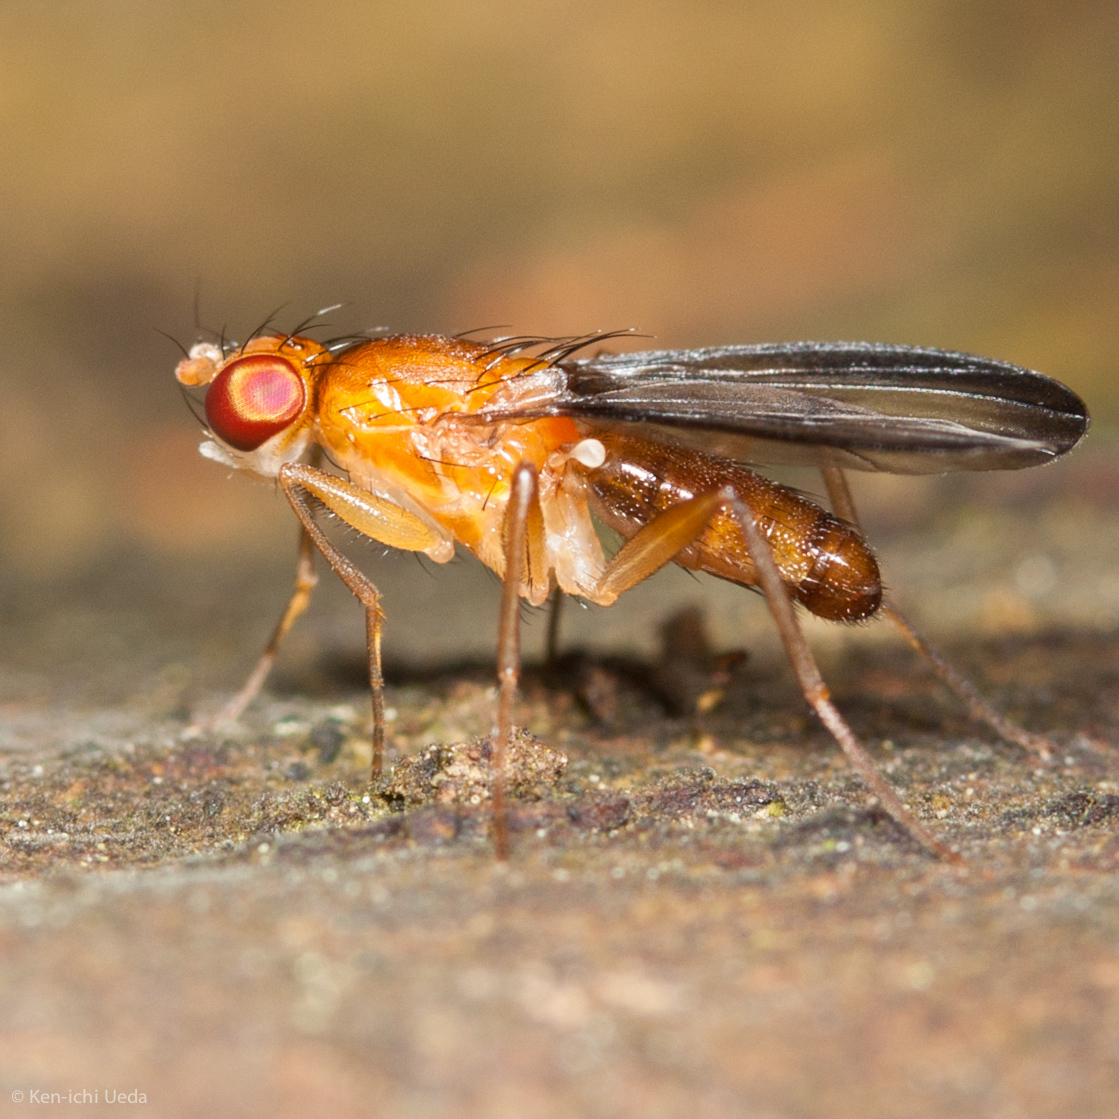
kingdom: Animalia
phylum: Arthropoda
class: Insecta
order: Diptera
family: Clusiidae
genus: Clusia
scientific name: Clusia occidentalis
